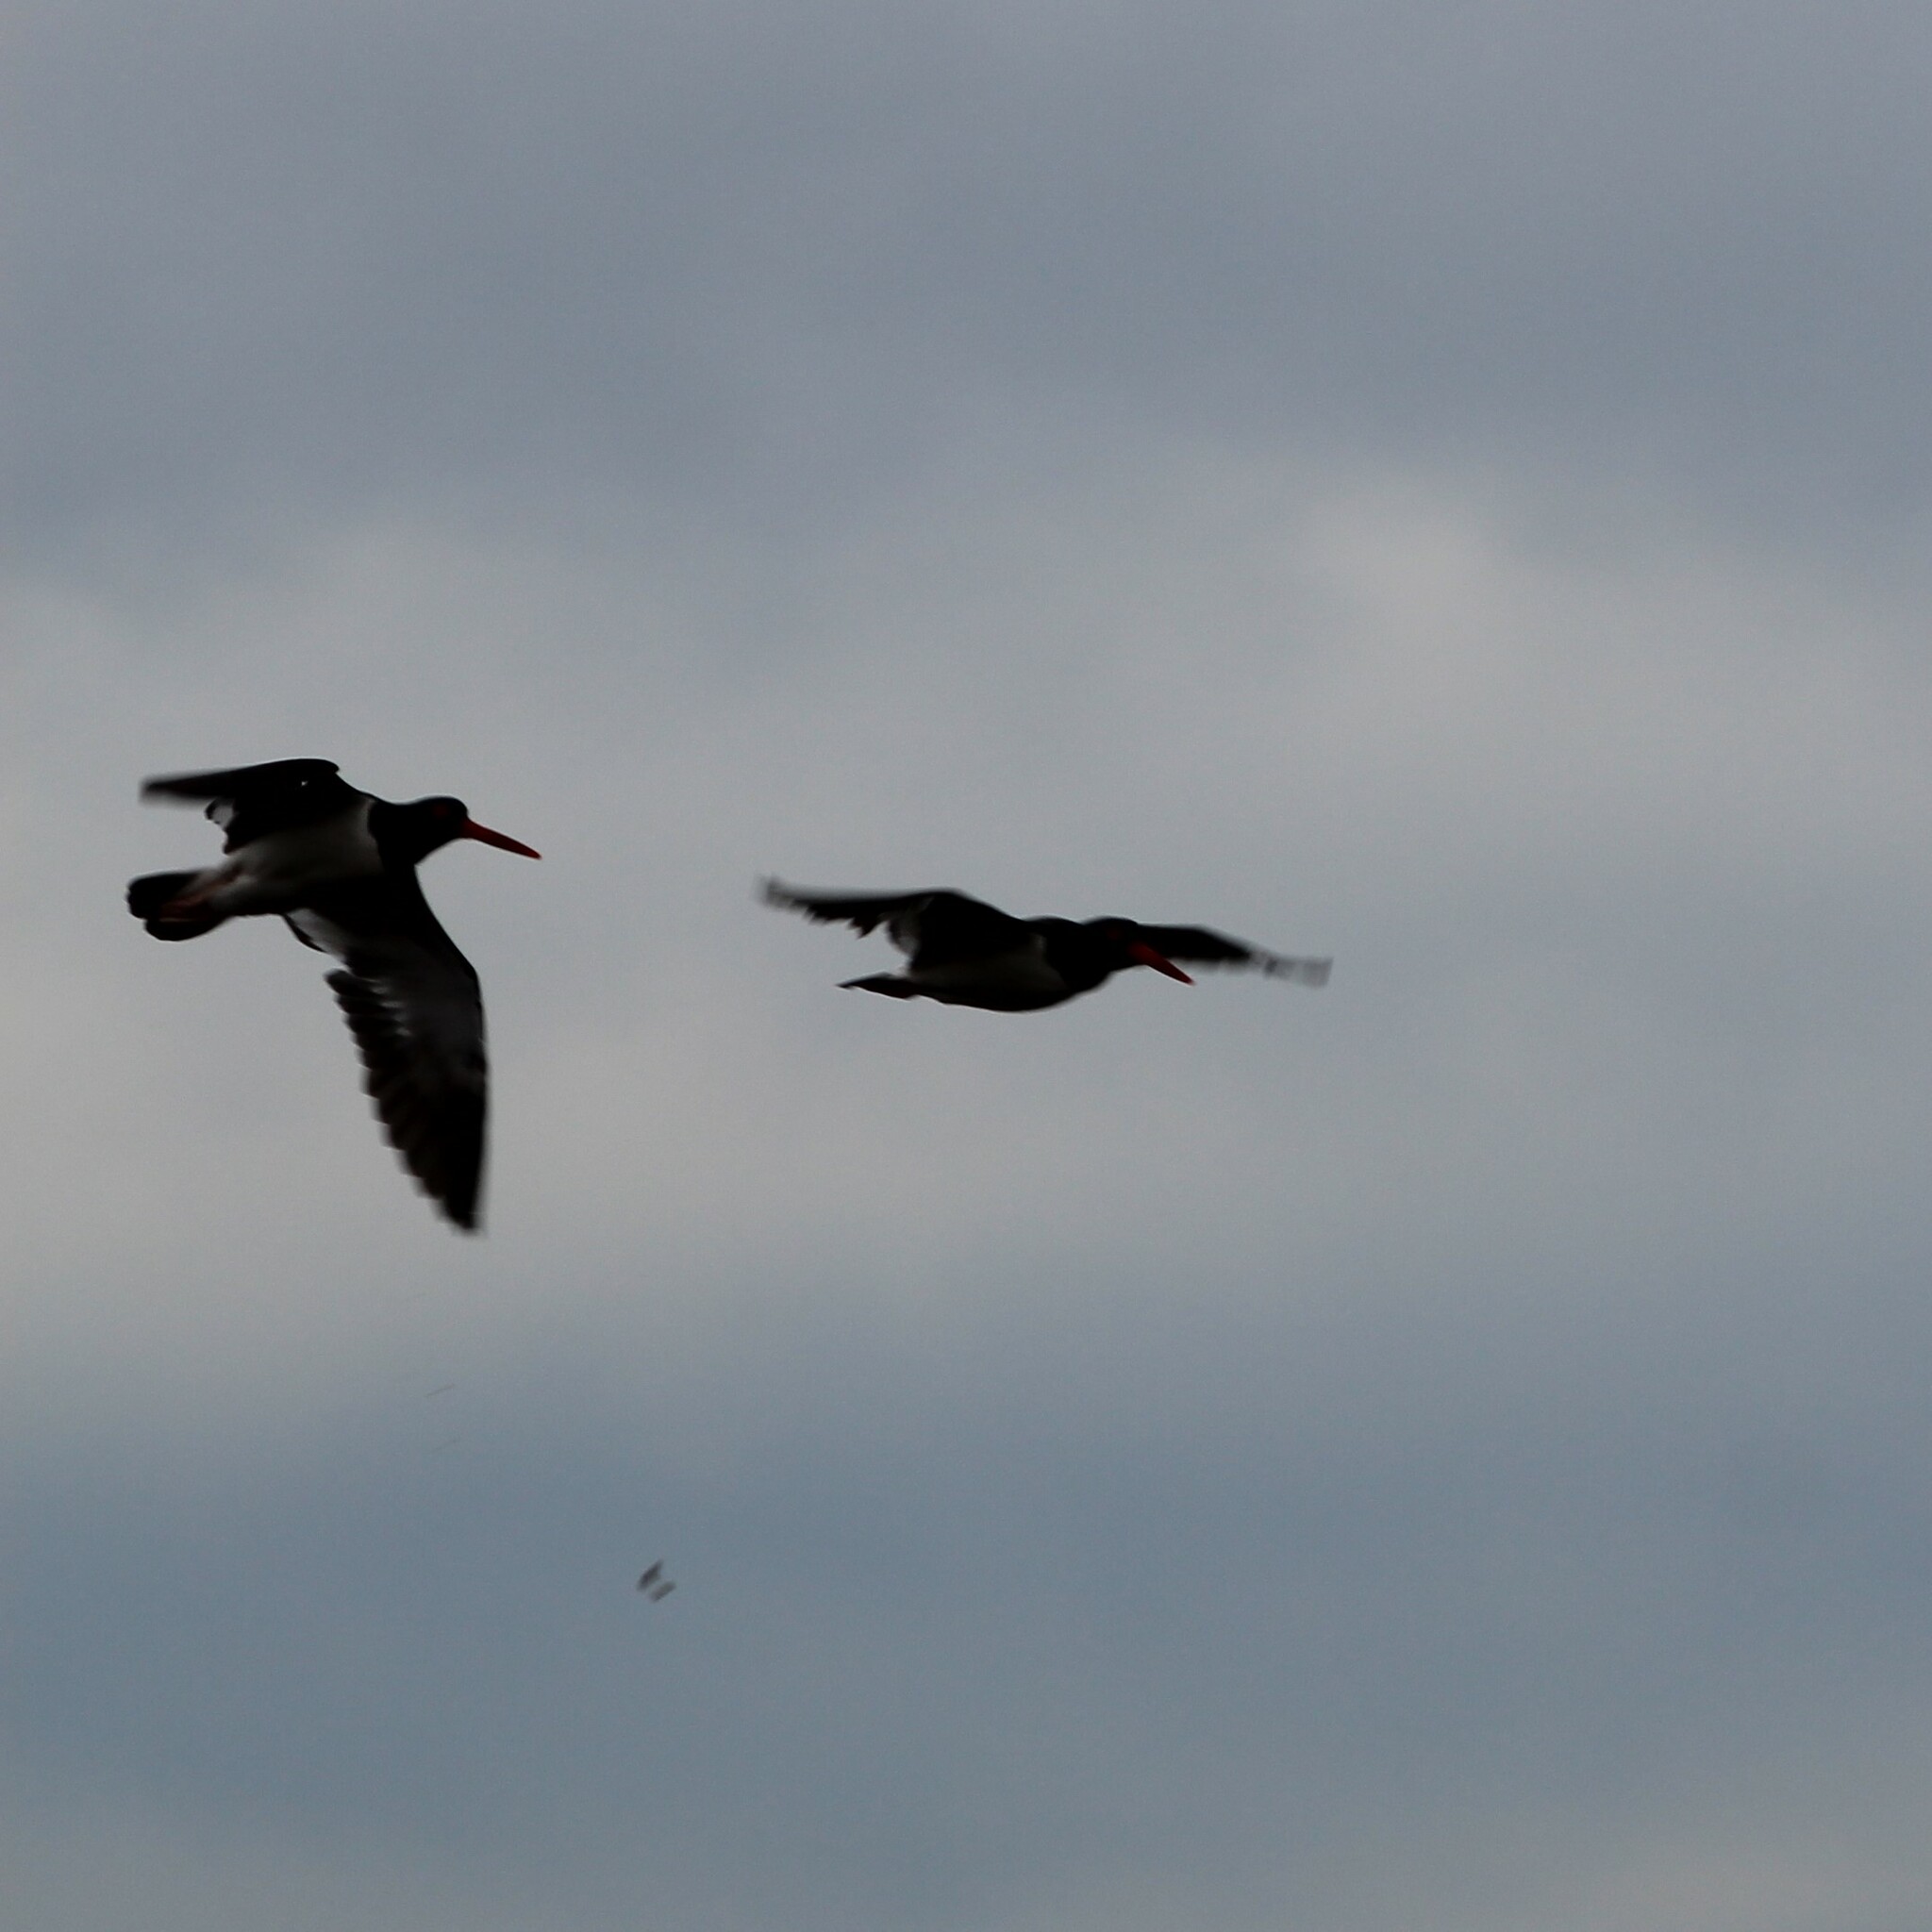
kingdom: Animalia
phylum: Chordata
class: Aves
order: Charadriiformes
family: Haematopodidae
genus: Haematopus
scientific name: Haematopus palliatus
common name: American oystercatcher
